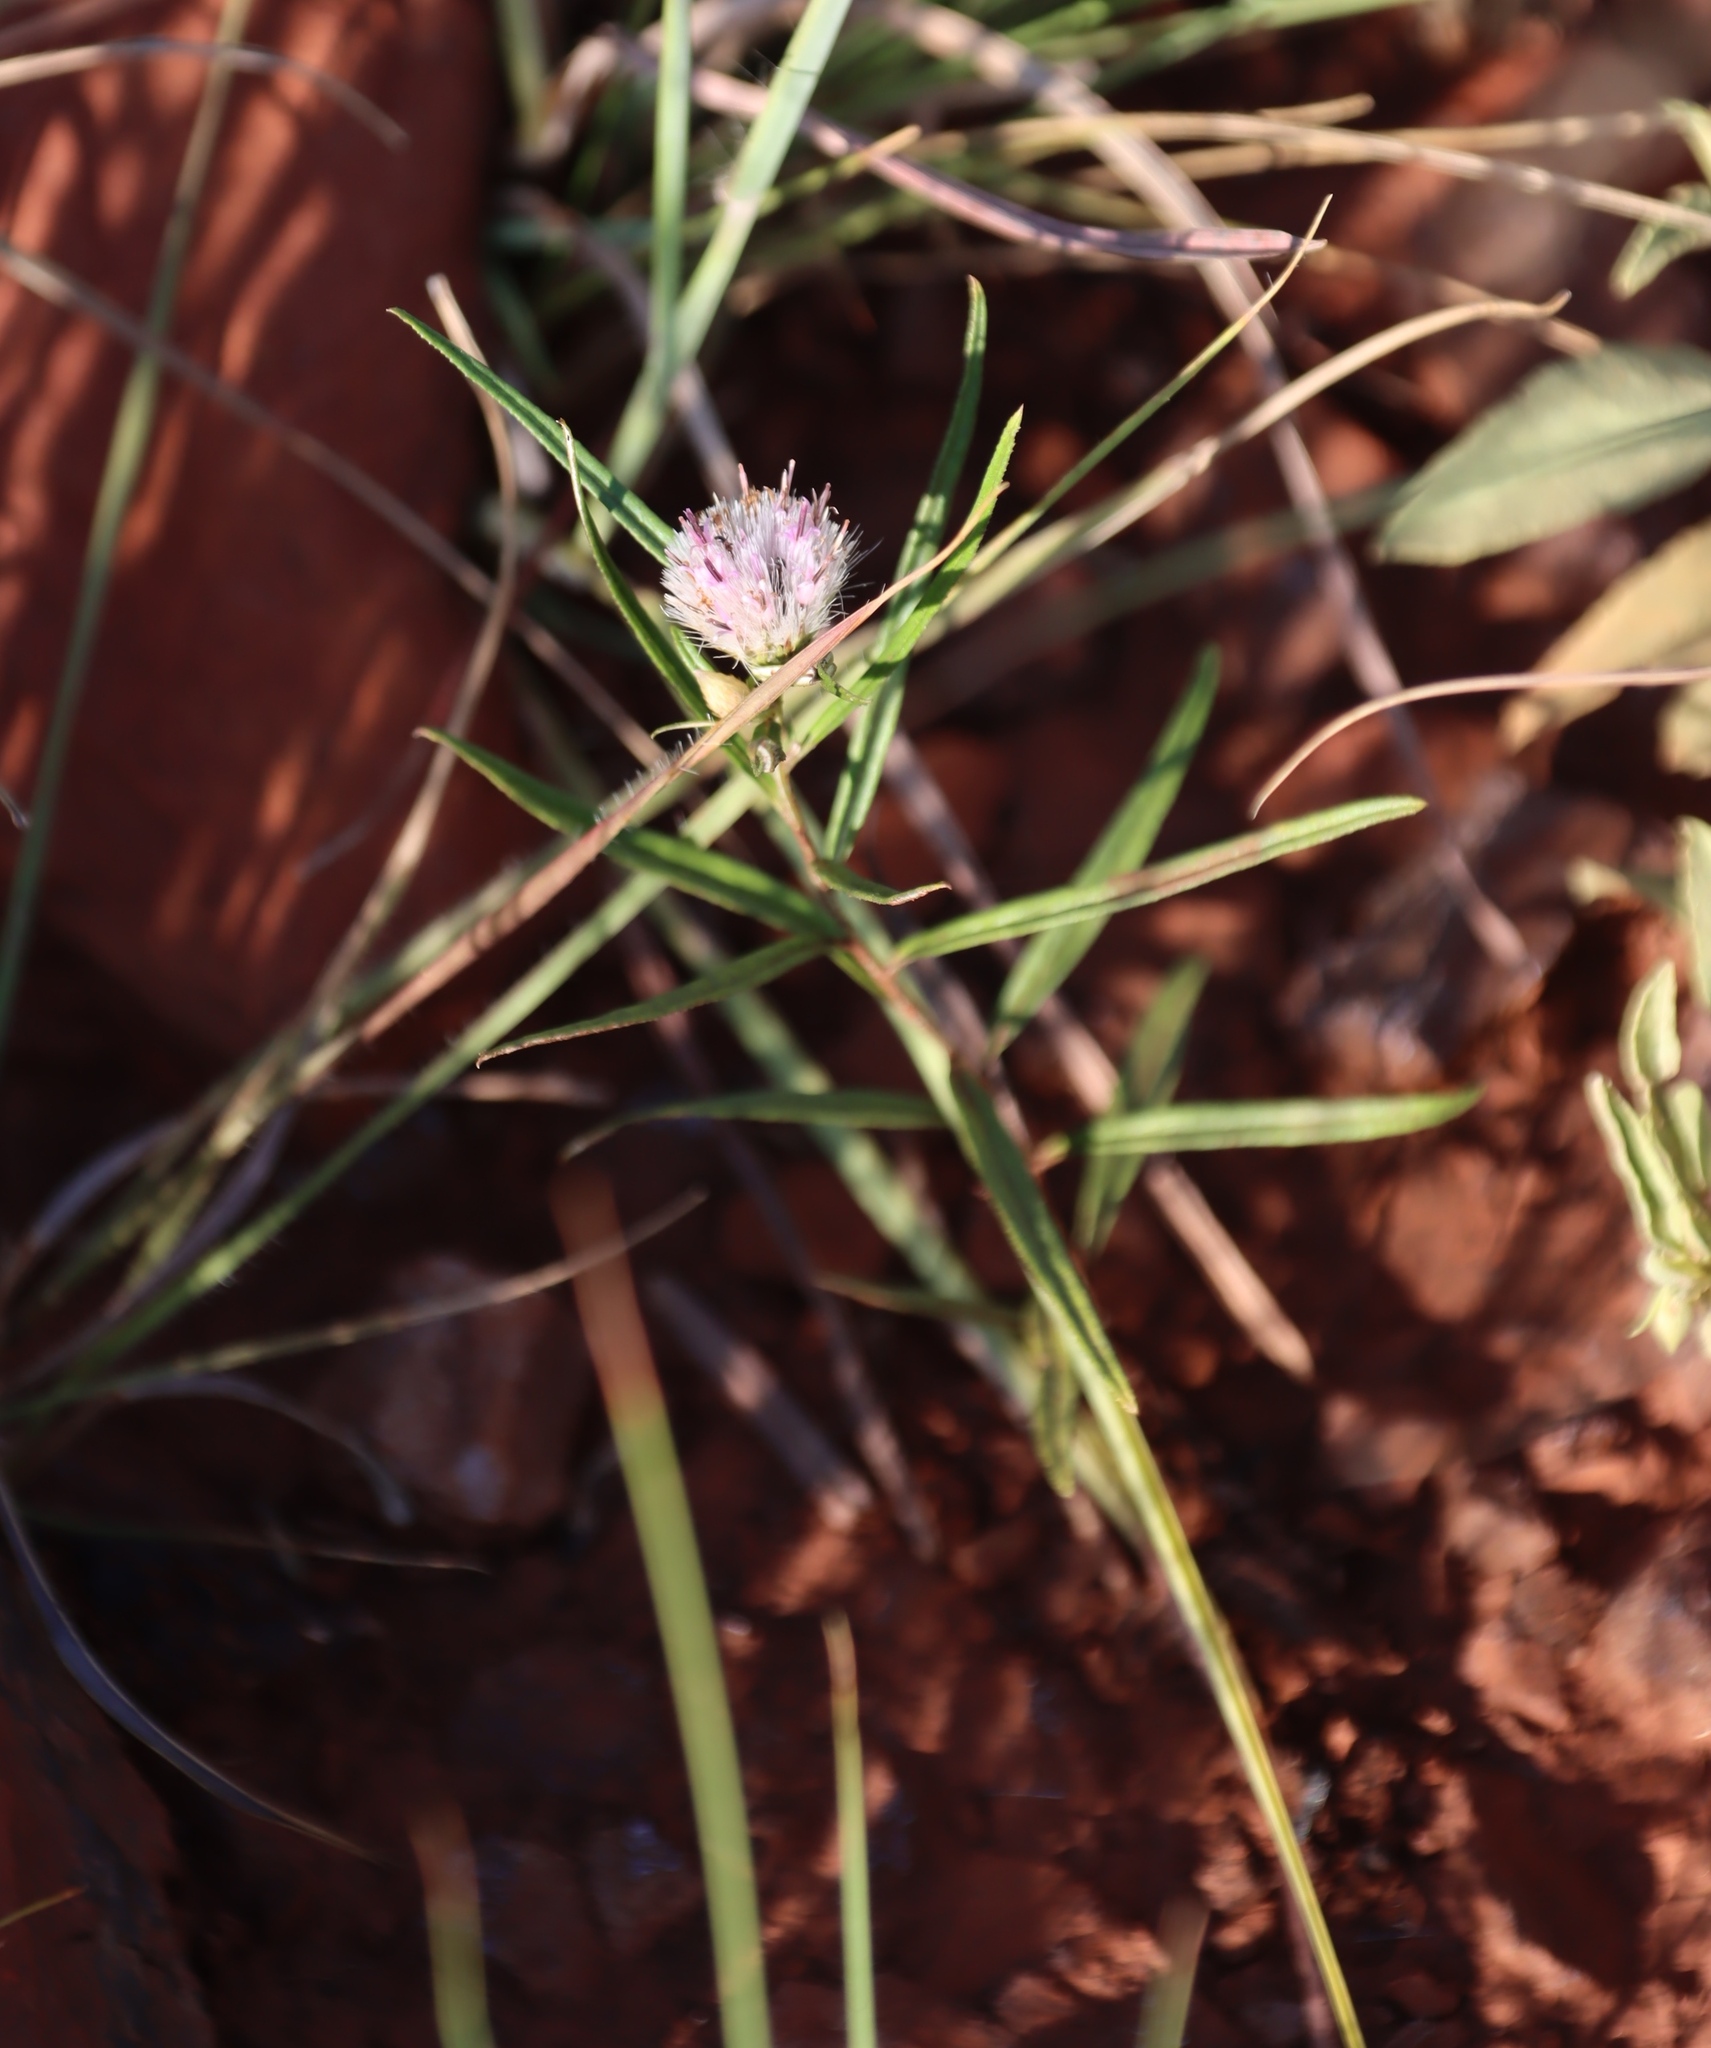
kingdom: Plantae
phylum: Tracheophyta
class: Magnoliopsida
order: Asterales
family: Asteraceae
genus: Dicoma
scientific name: Dicoma anomala
